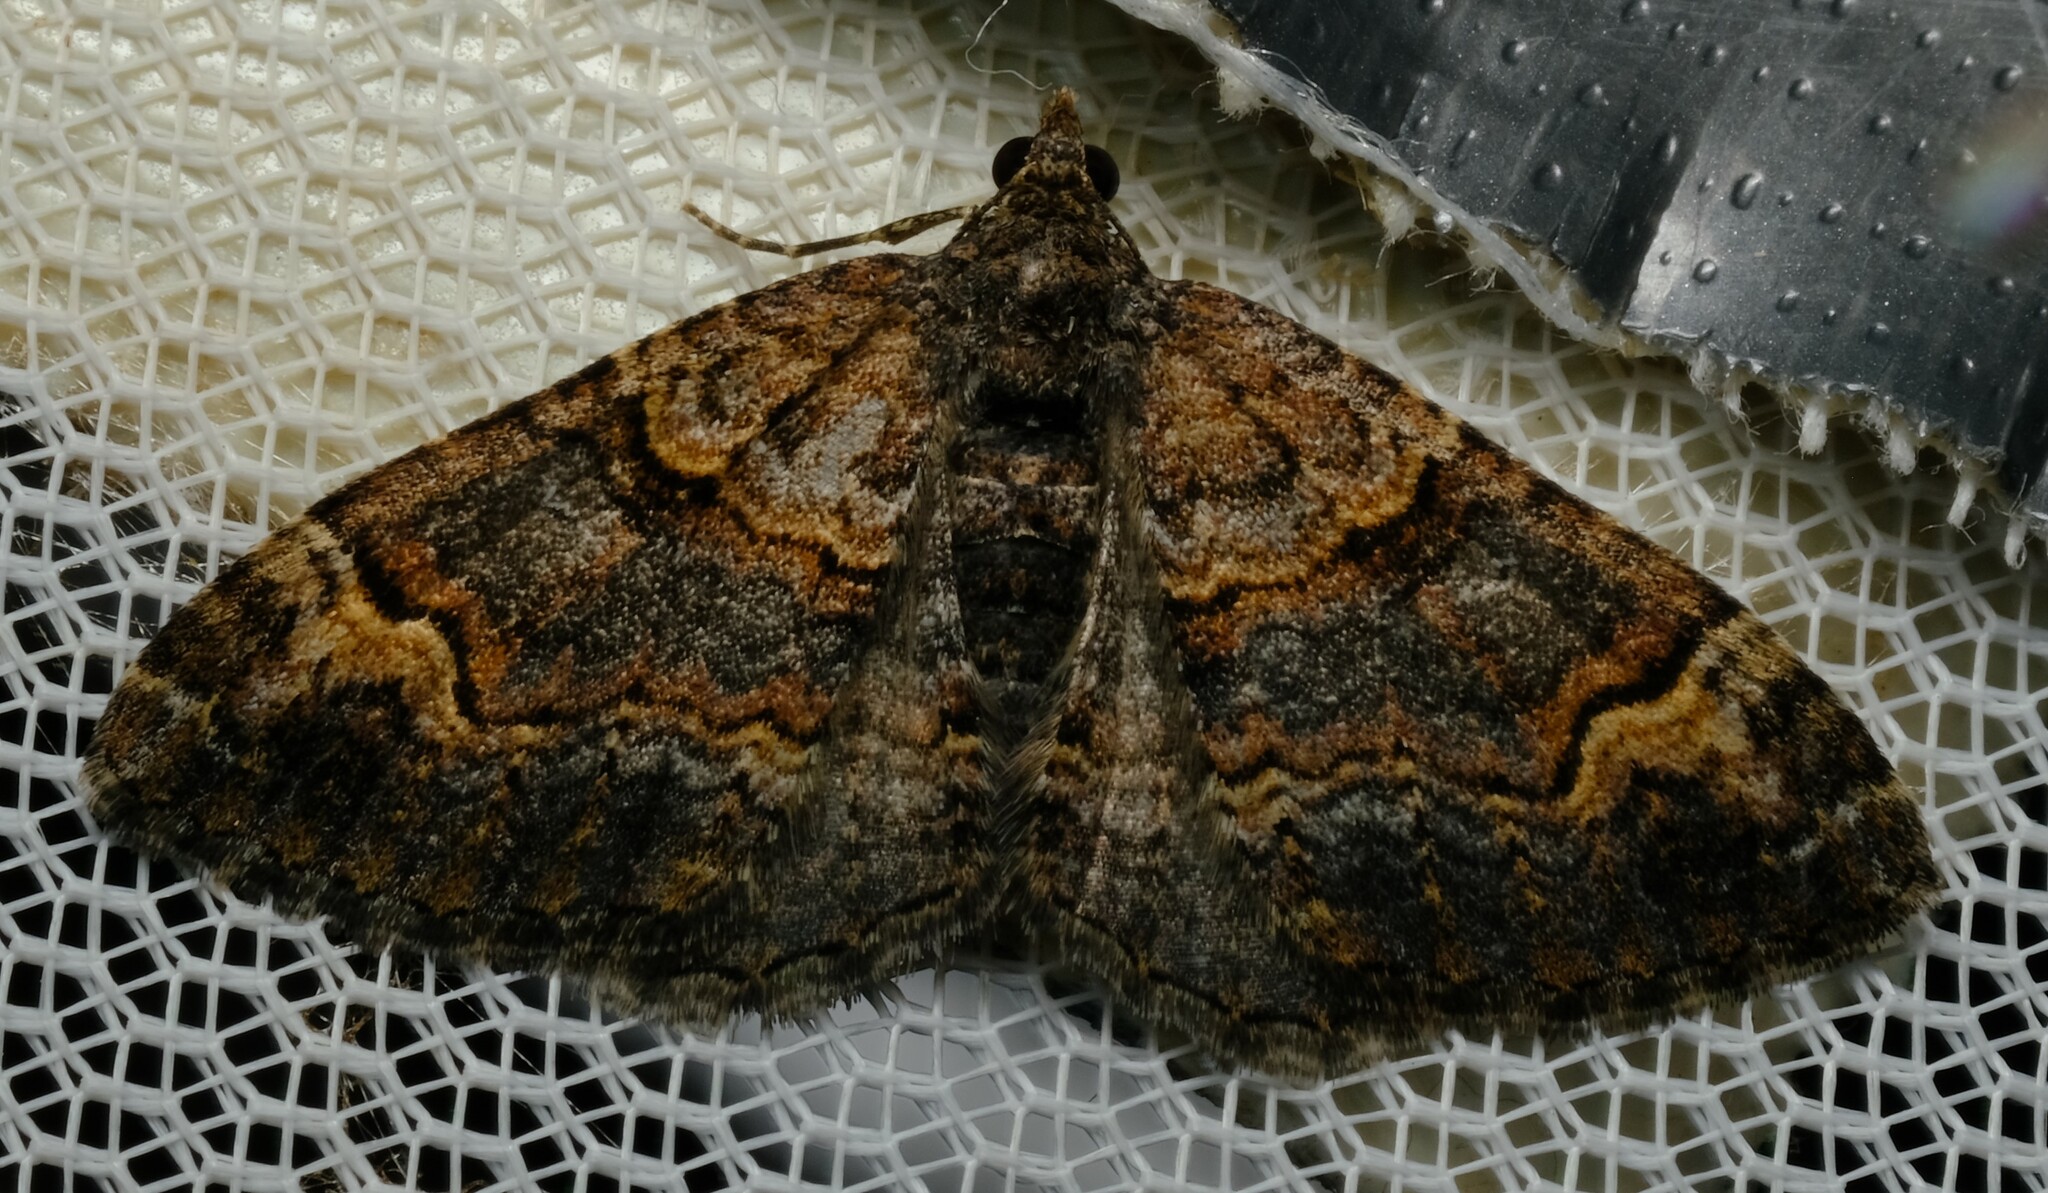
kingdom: Animalia
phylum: Arthropoda
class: Insecta
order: Lepidoptera
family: Geometridae
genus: Epyaxa
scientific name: Epyaxa sodaliata
